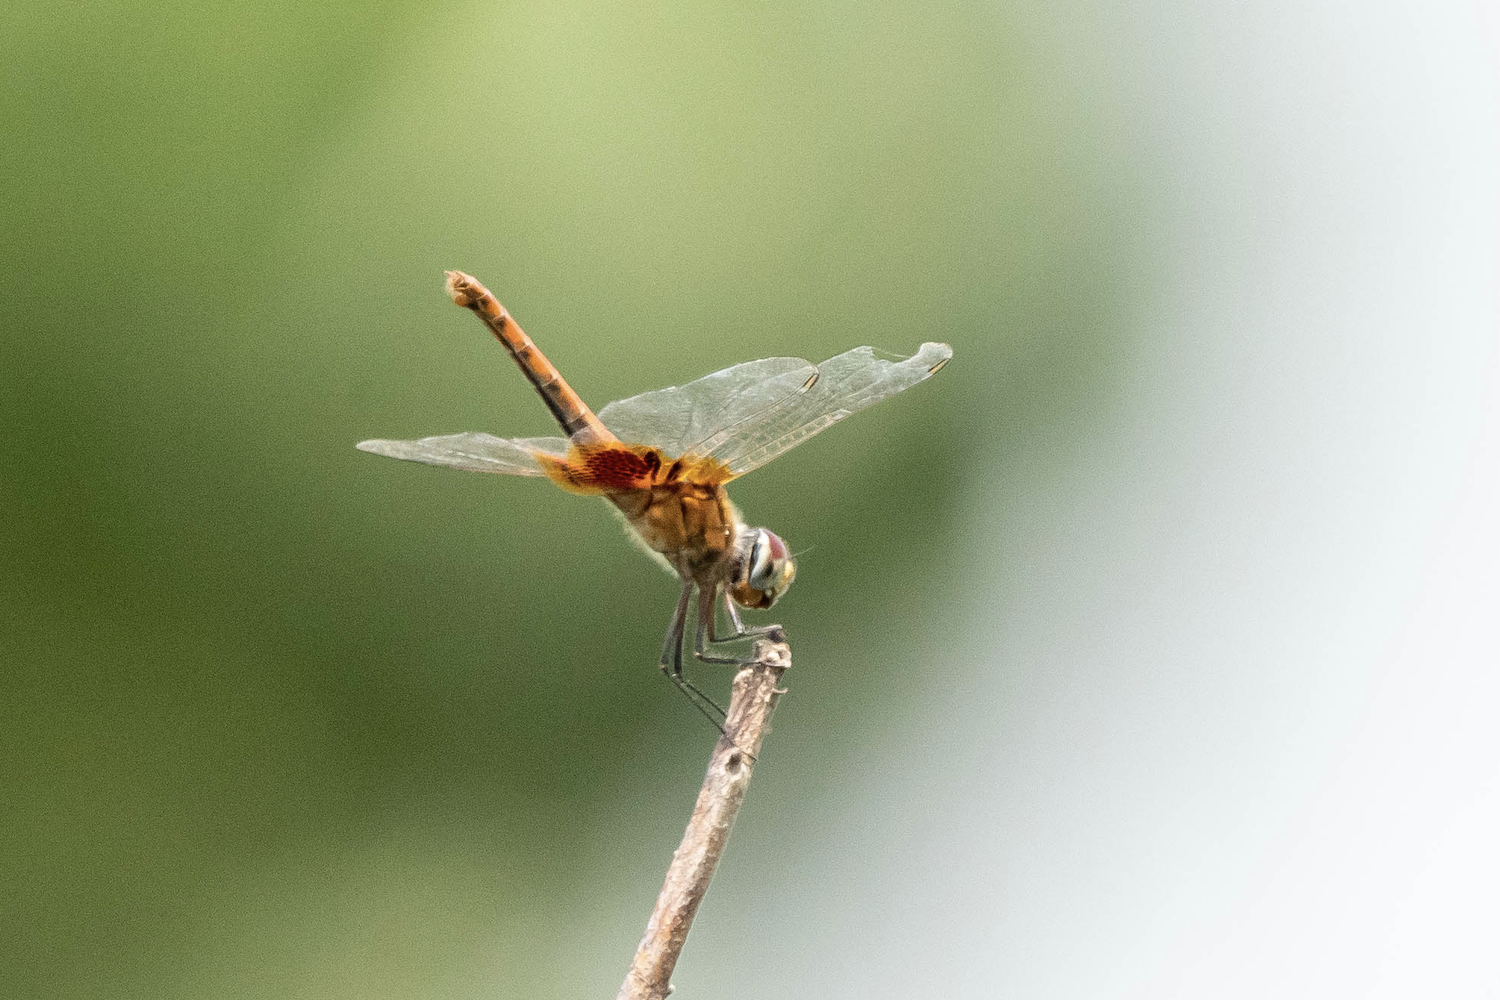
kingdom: Animalia
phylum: Arthropoda
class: Insecta
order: Odonata
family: Libellulidae
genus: Urothemis
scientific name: Urothemis signata
